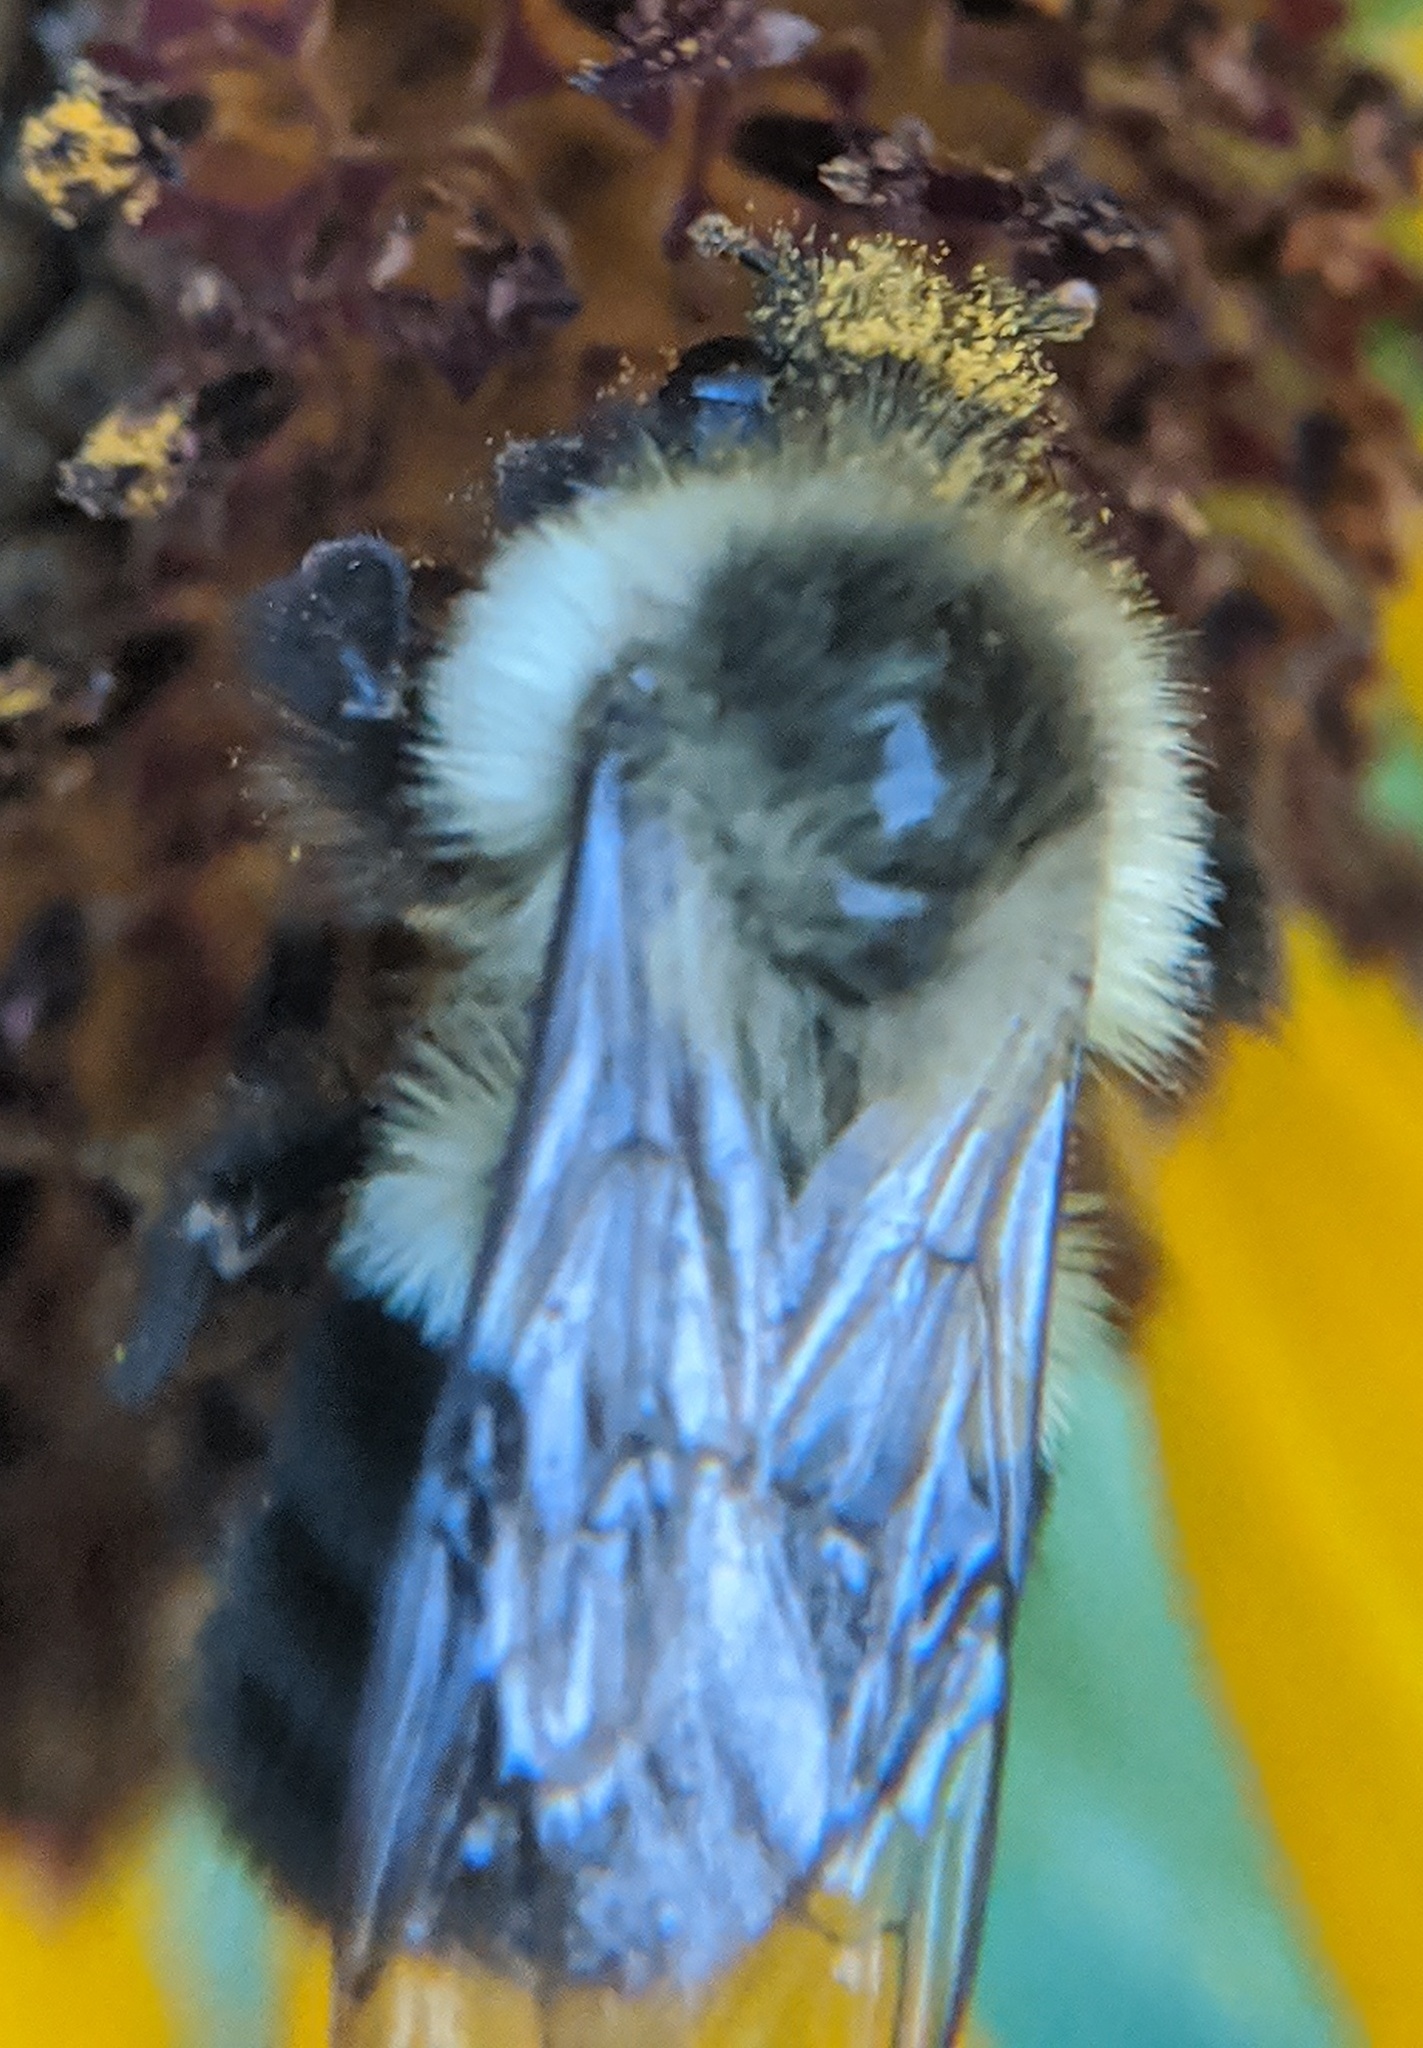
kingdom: Animalia
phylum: Arthropoda
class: Insecta
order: Hymenoptera
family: Apidae
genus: Bombus
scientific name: Bombus impatiens
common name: Common eastern bumble bee
